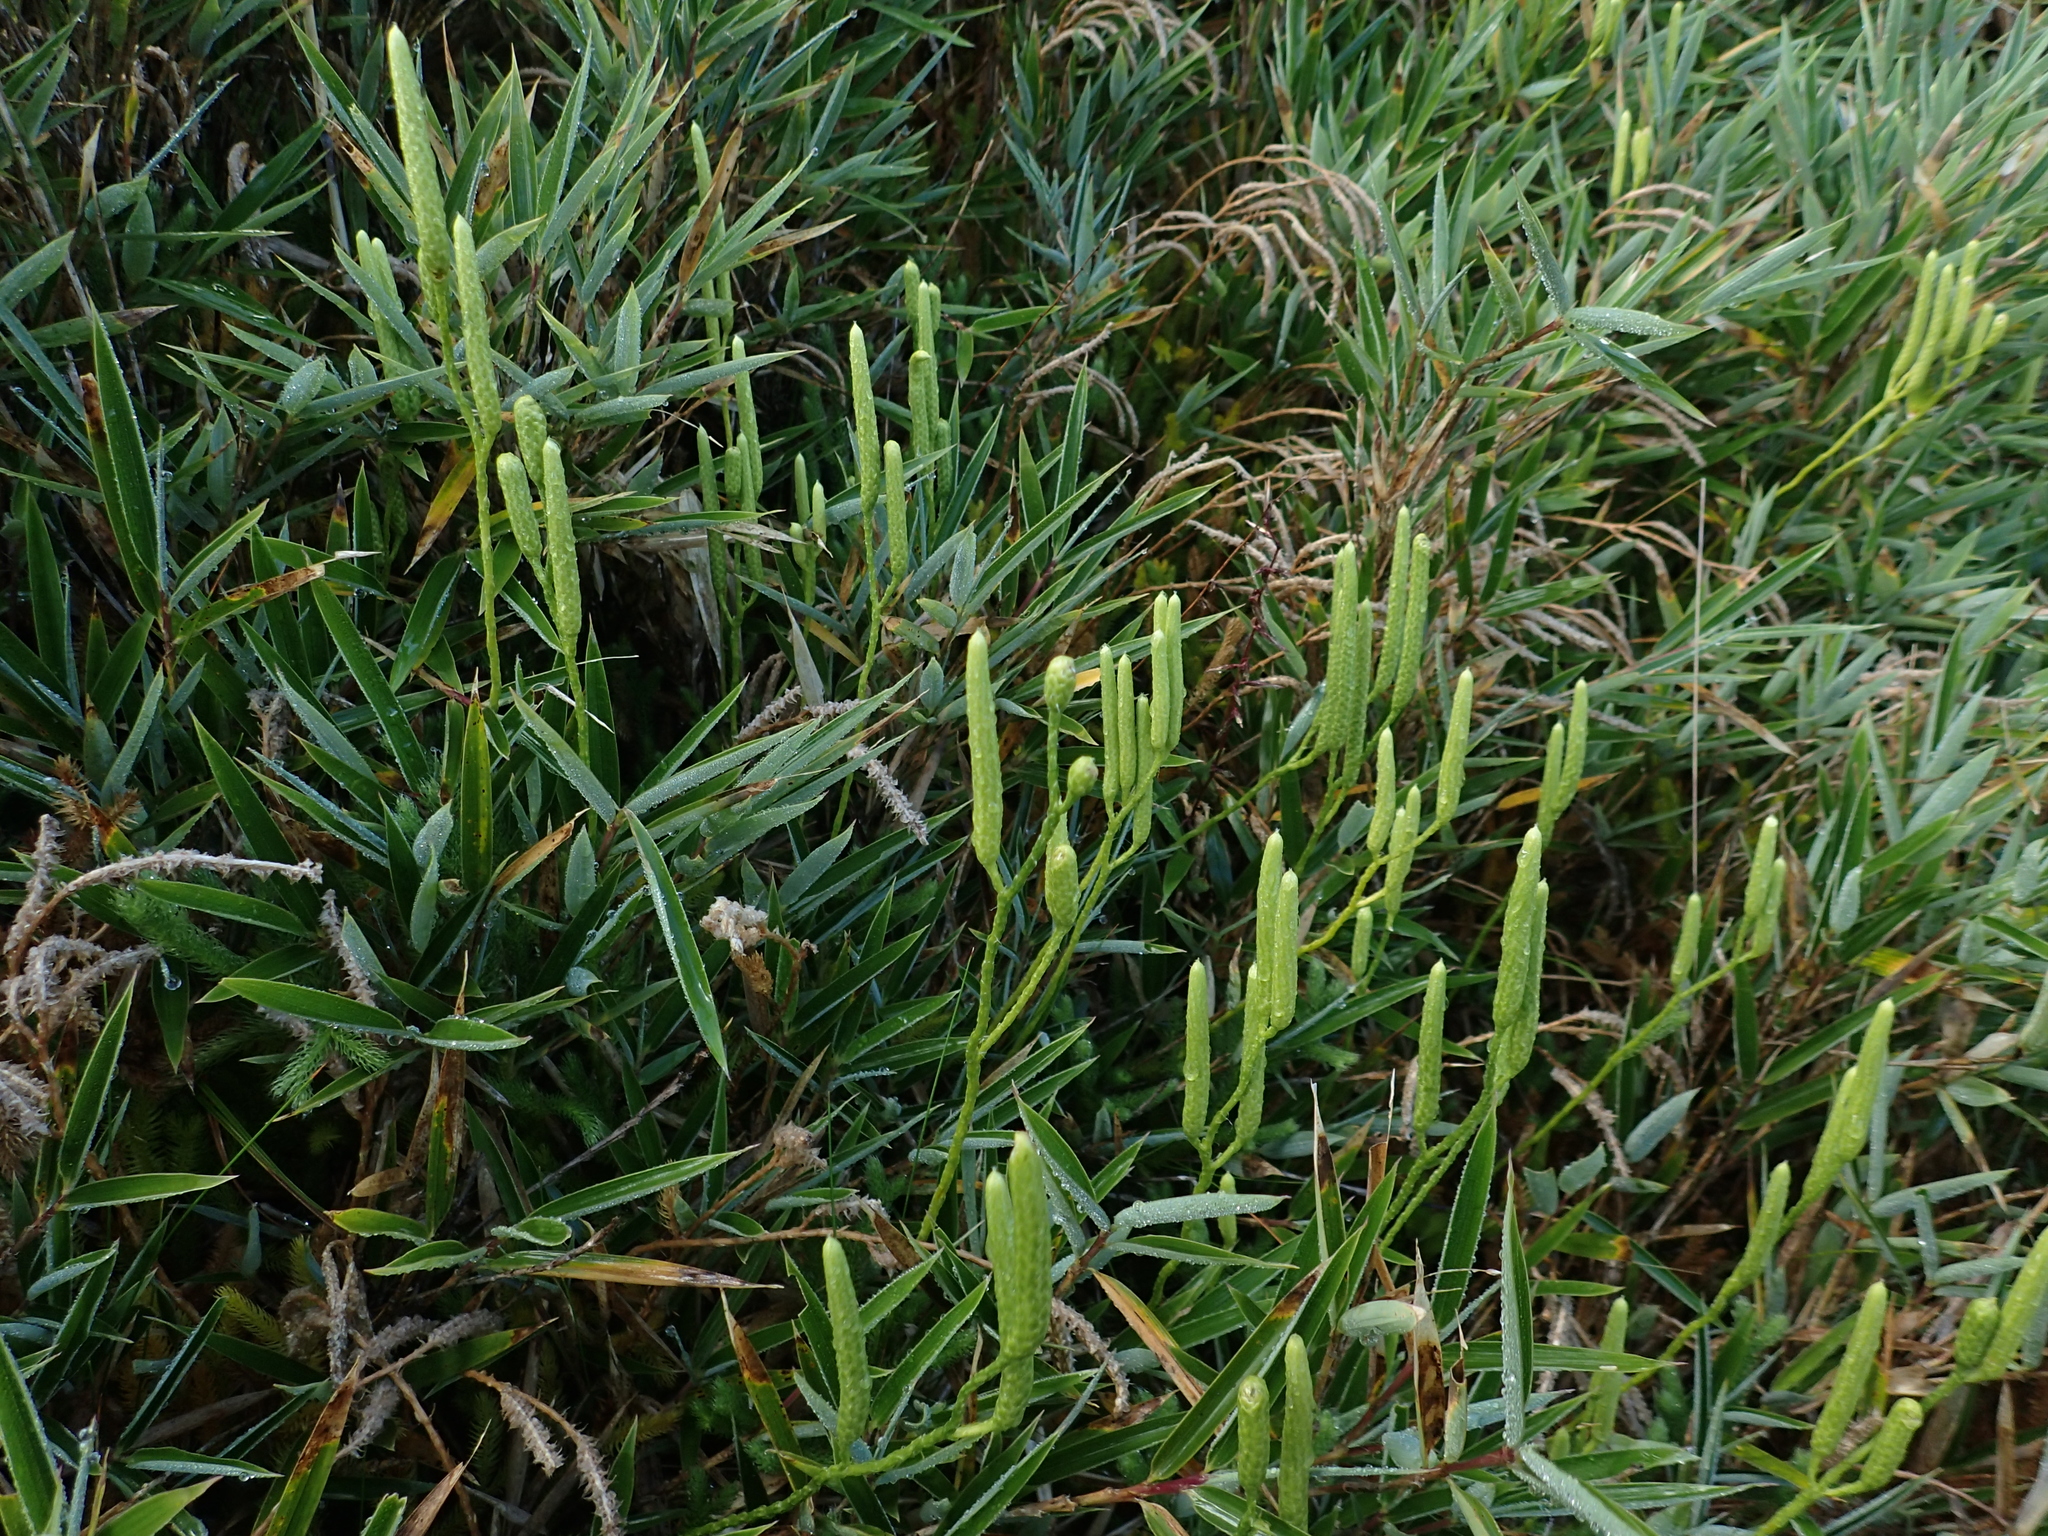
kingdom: Plantae
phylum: Tracheophyta
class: Lycopodiopsida
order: Lycopodiales
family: Lycopodiaceae
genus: Lycopodium
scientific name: Lycopodium clavatum
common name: Stag's-horn clubmoss
